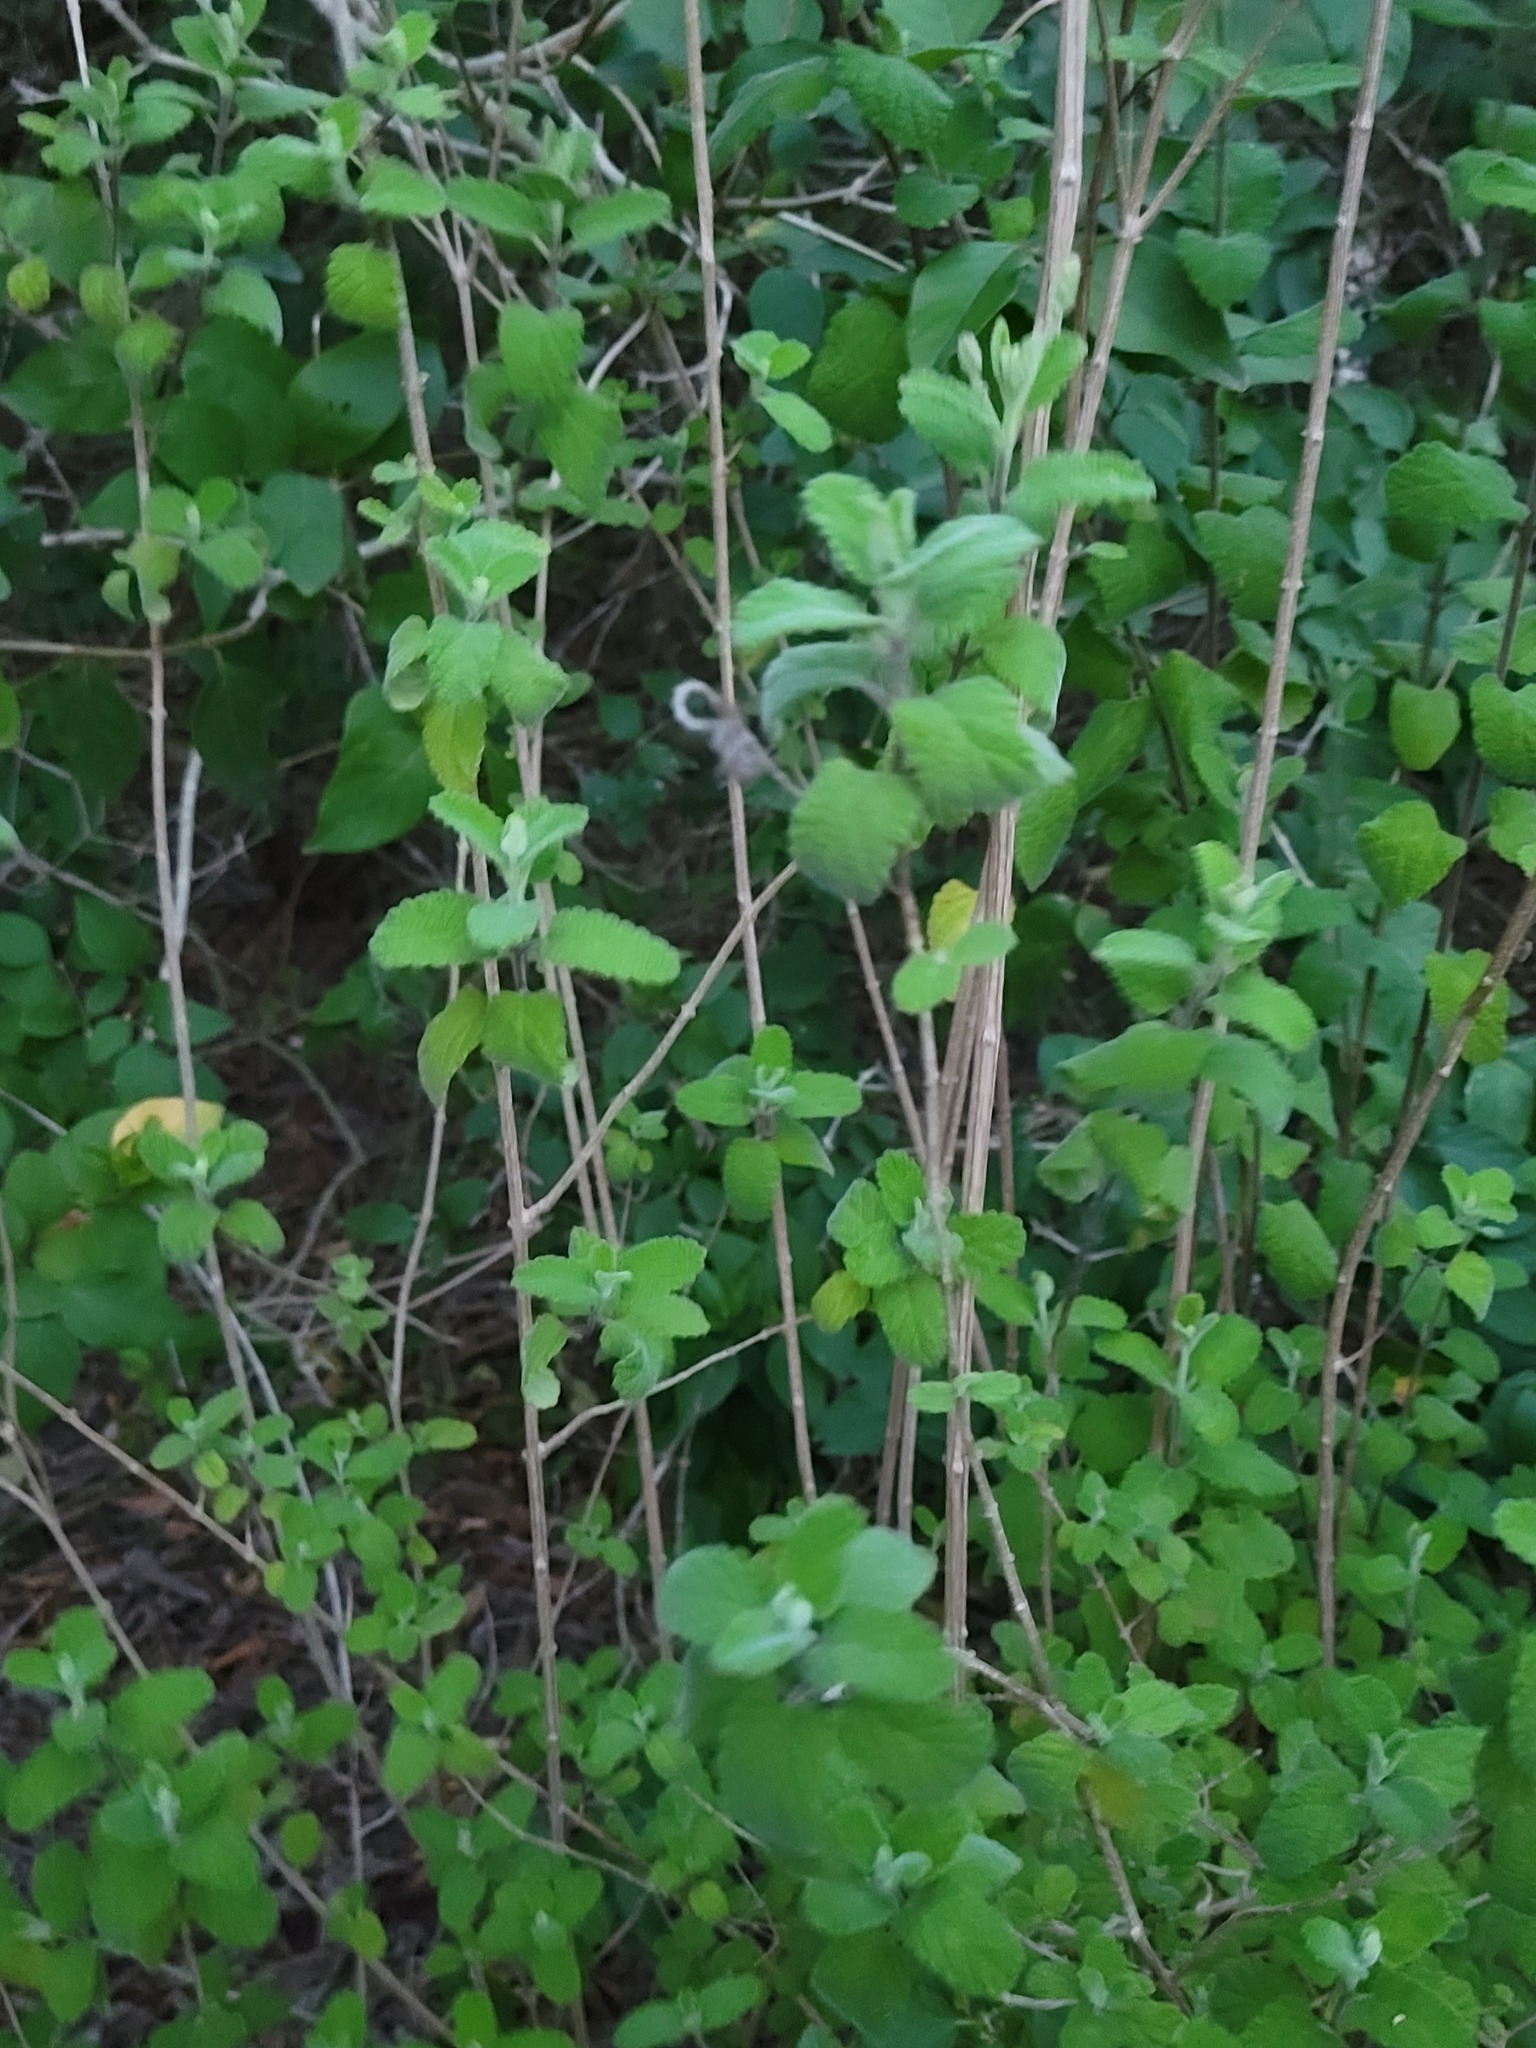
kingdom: Plantae
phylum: Tracheophyta
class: Magnoliopsida
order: Lamiales
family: Verbenaceae
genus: Aloysia
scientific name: Aloysia macrostachya
